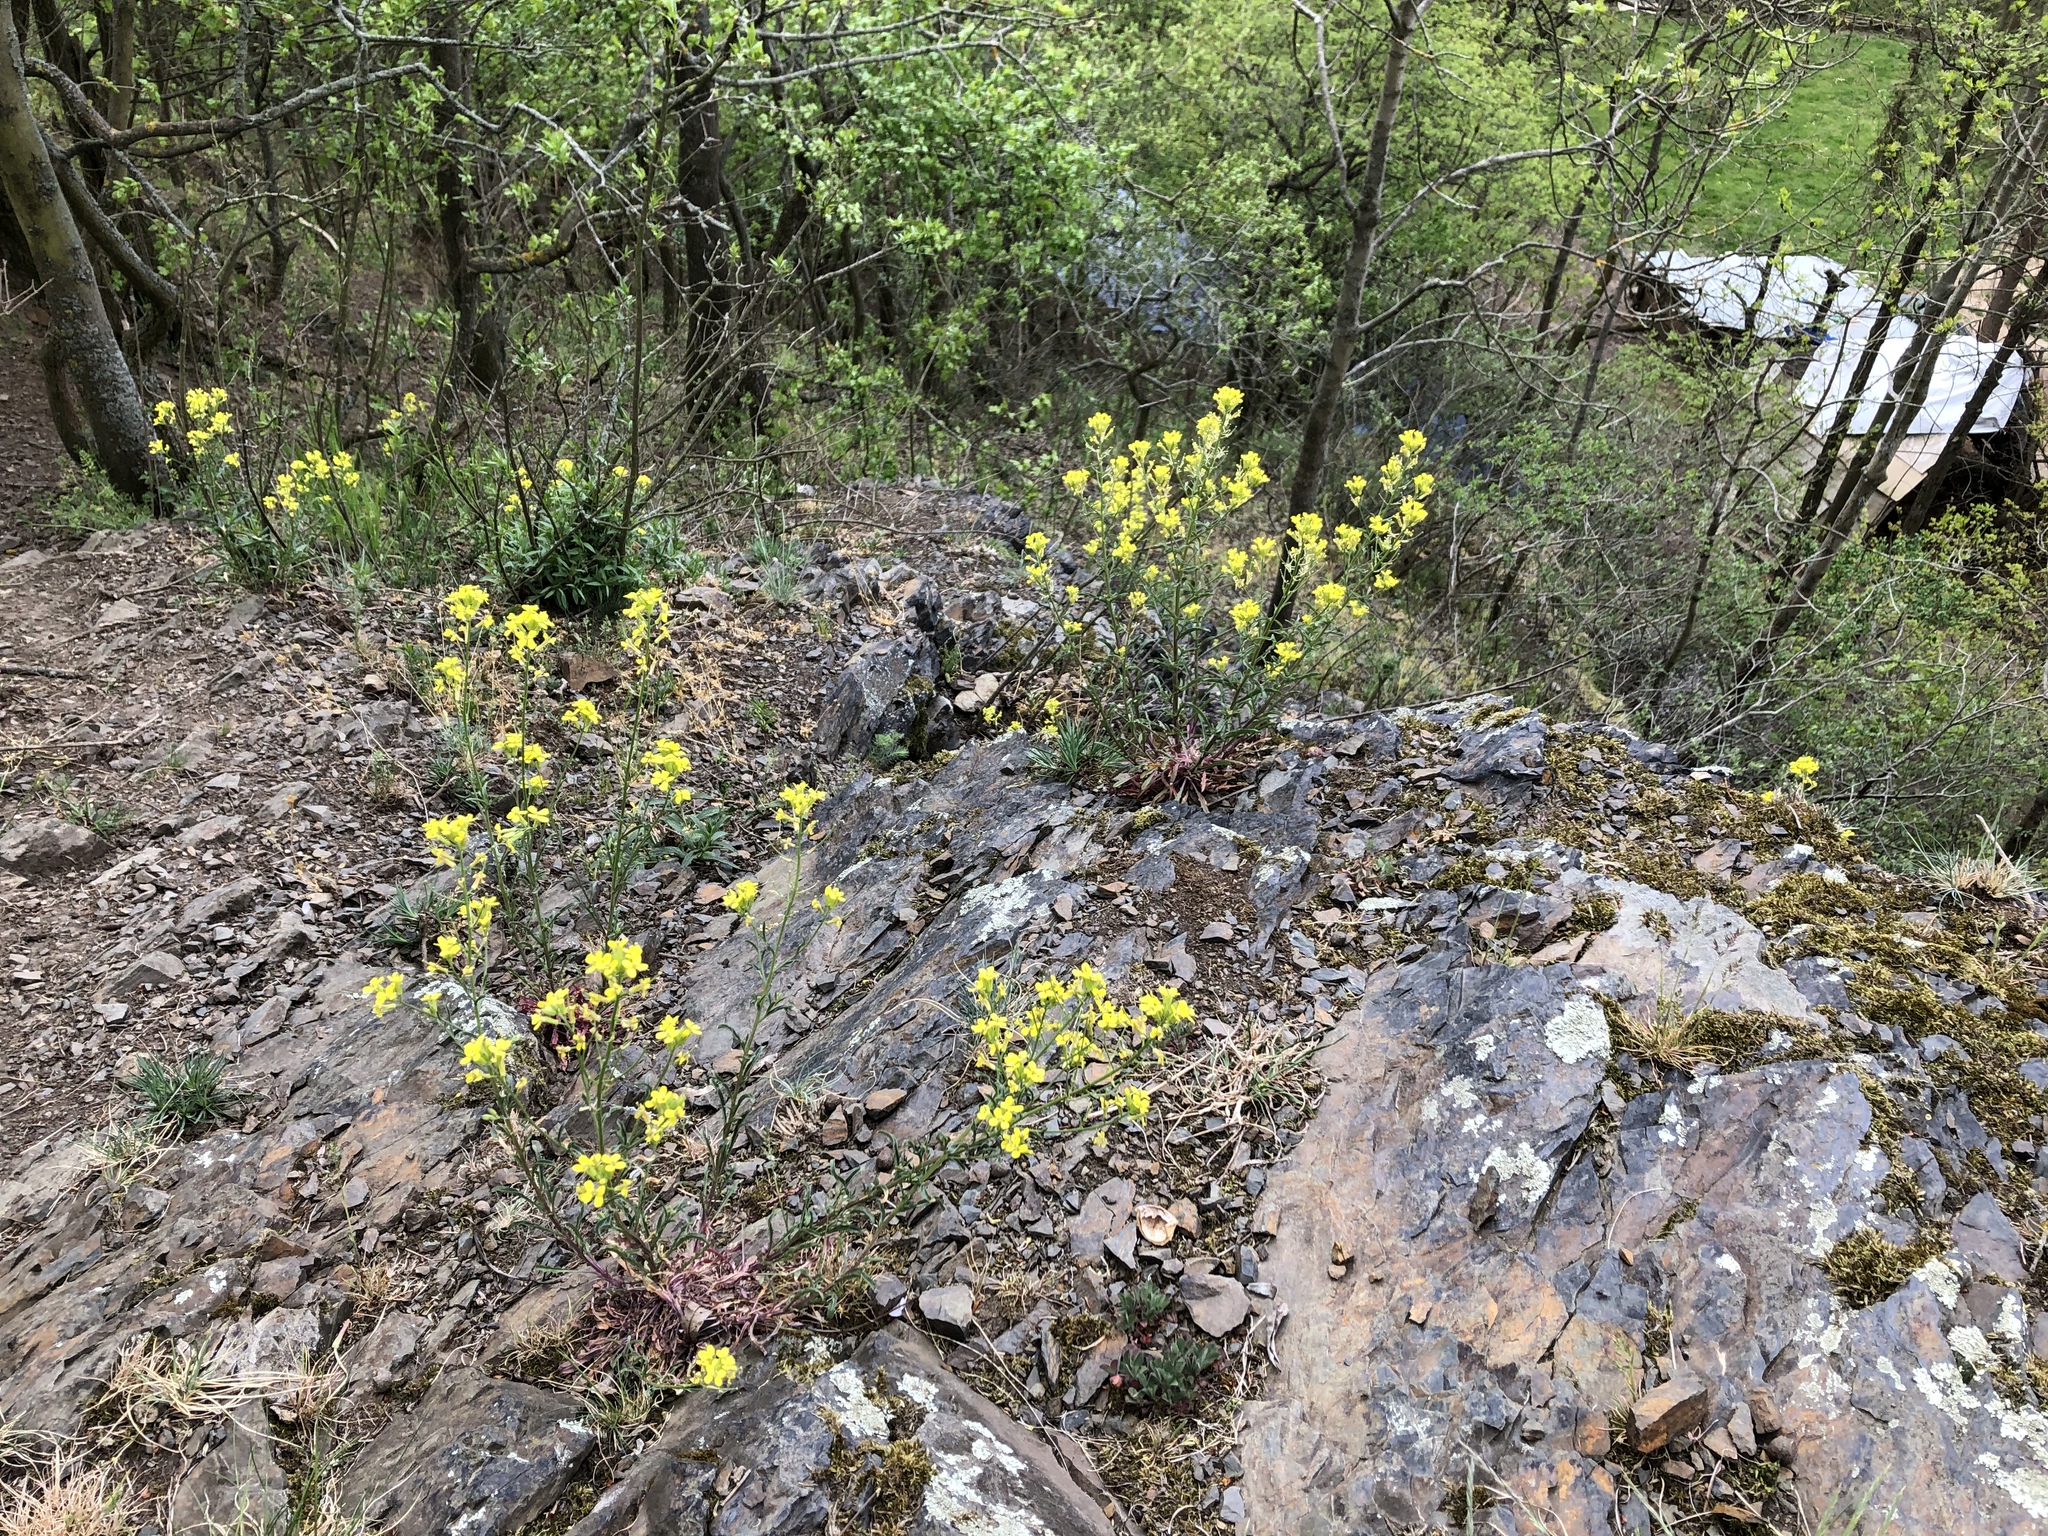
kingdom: Plantae
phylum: Tracheophyta
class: Magnoliopsida
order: Brassicales
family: Brassicaceae
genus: Erysimum
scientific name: Erysimum crepidifolium
